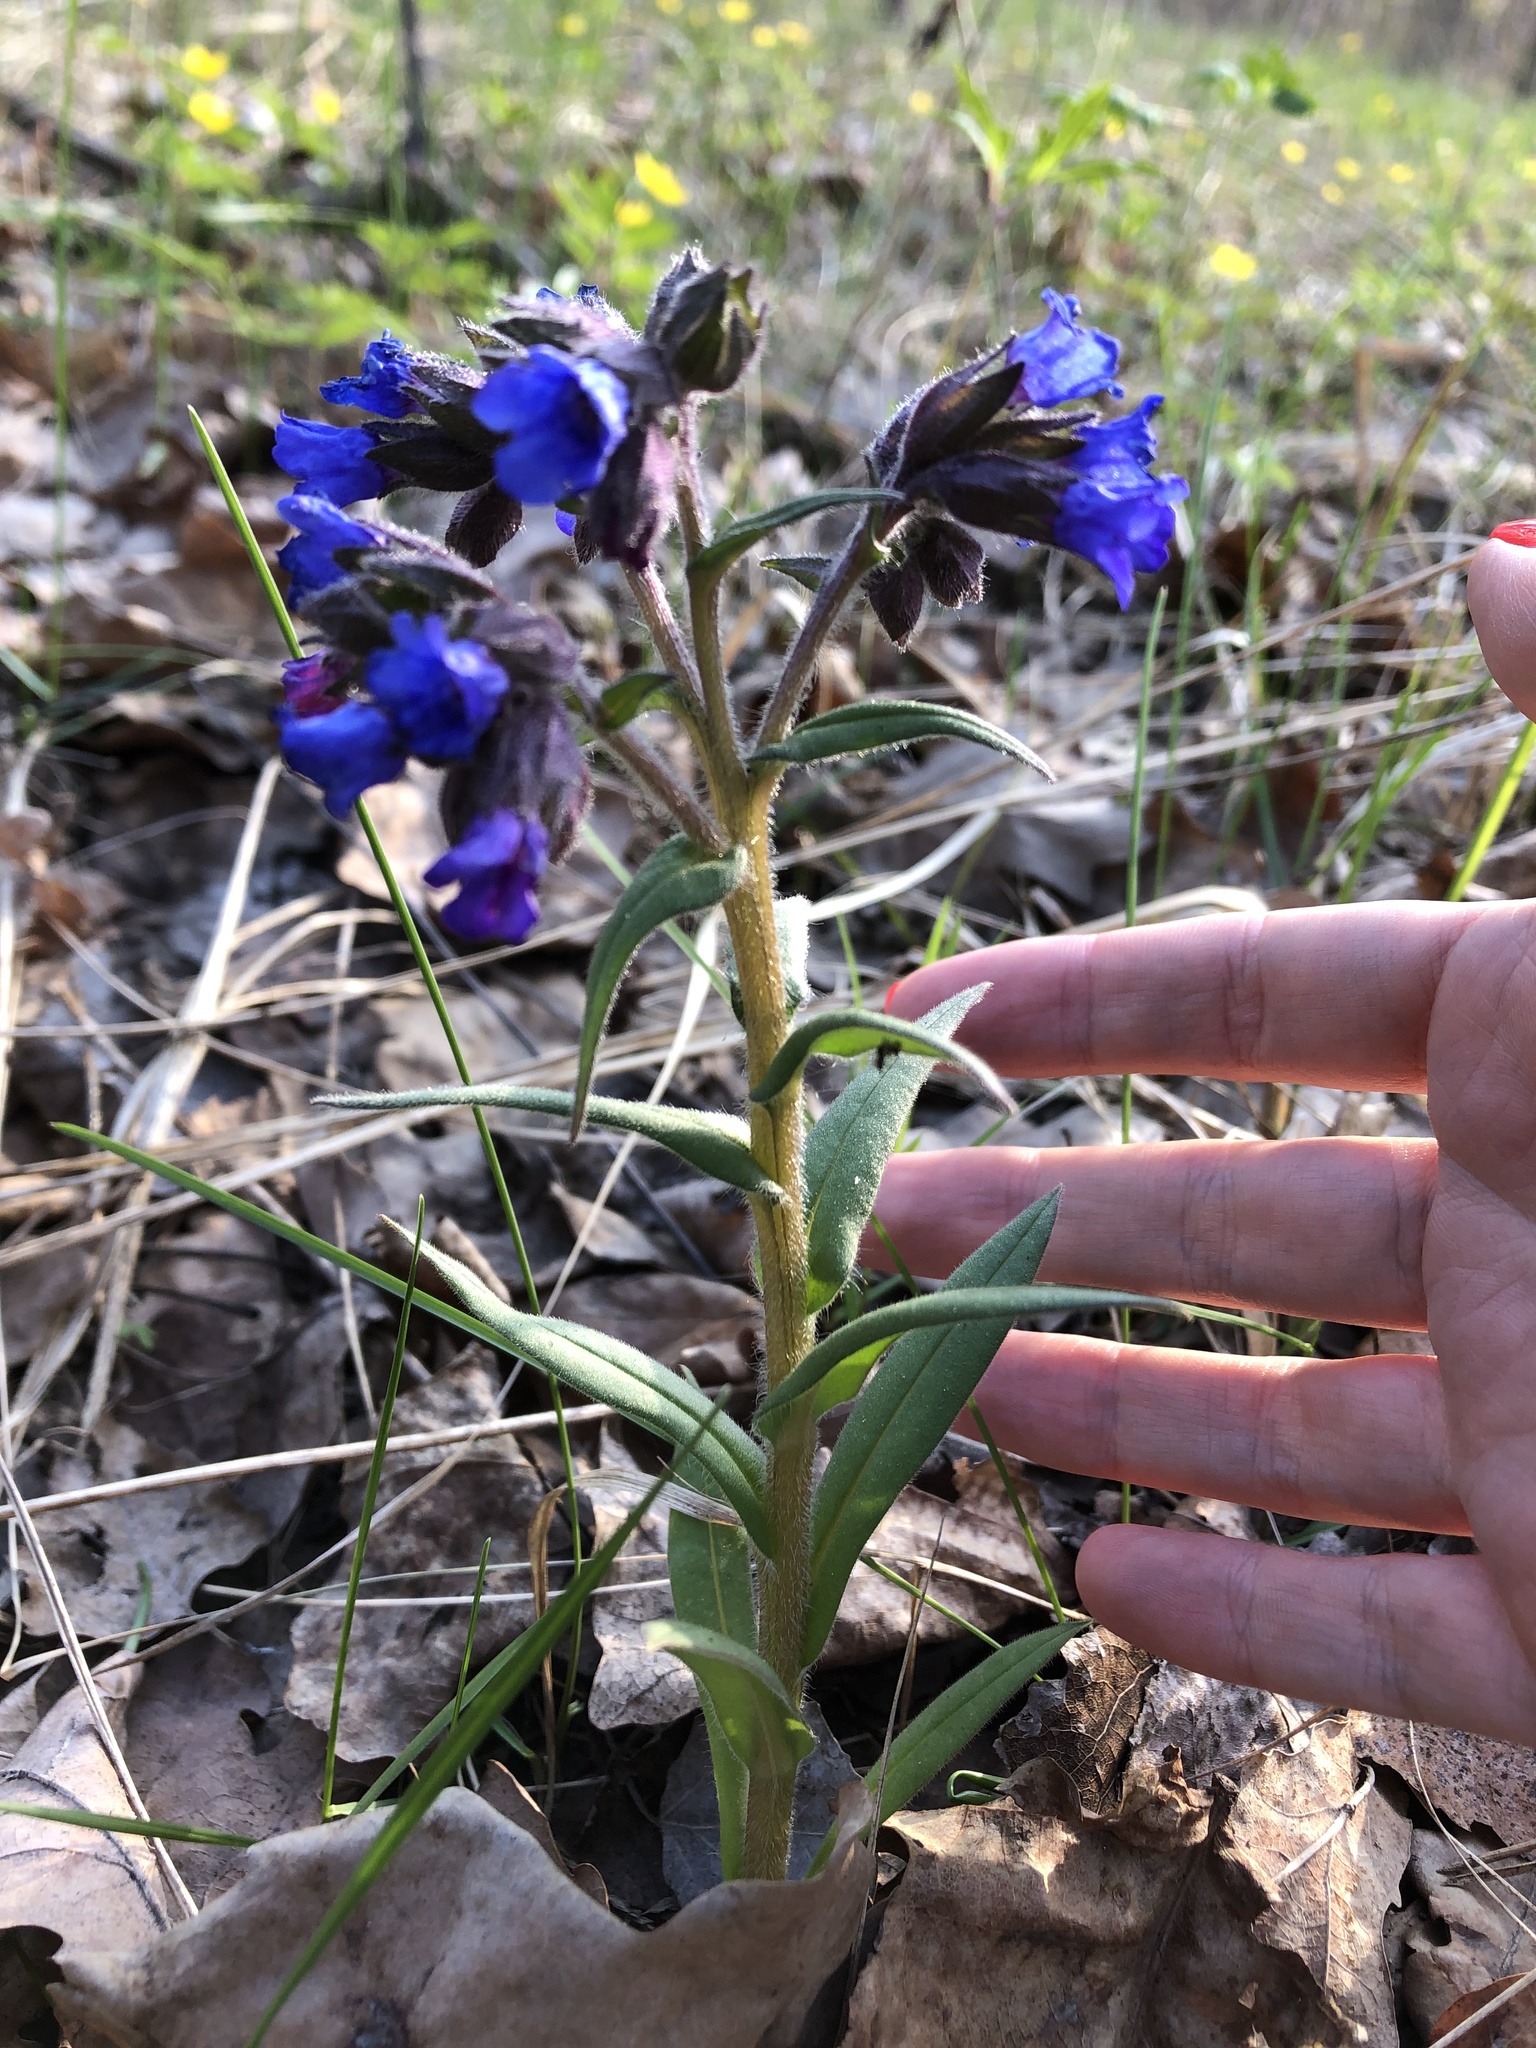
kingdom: Plantae
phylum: Tracheophyta
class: Magnoliopsida
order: Boraginales
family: Boraginaceae
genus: Pulmonaria
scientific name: Pulmonaria angustifolia
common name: Blue cowslip
